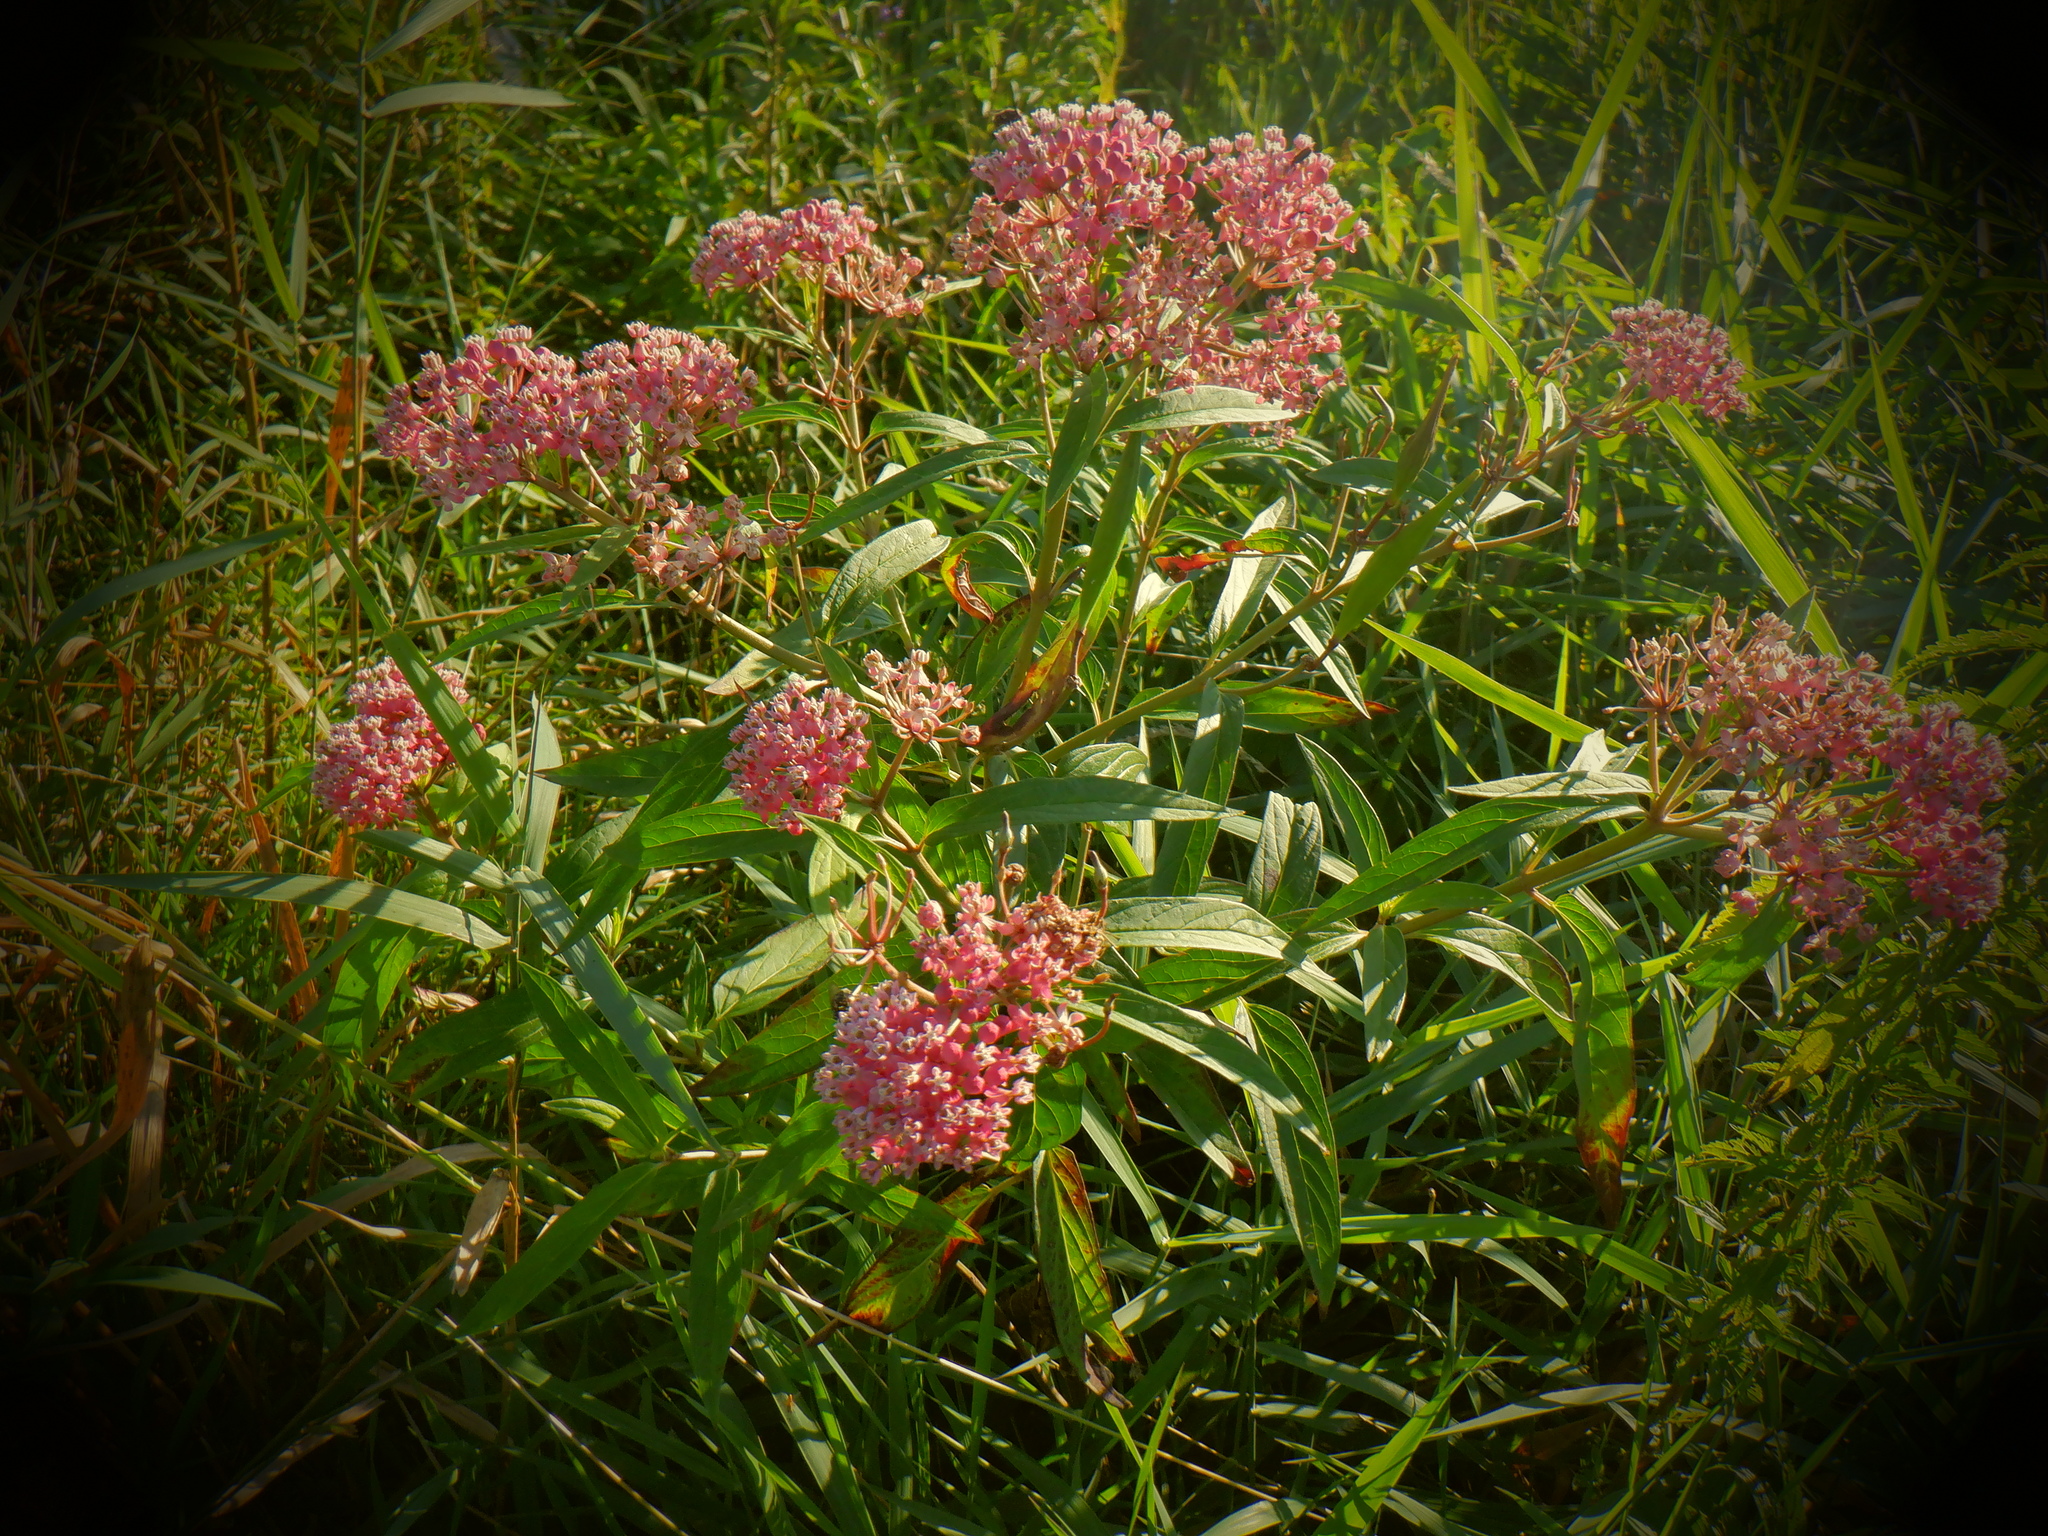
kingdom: Plantae
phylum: Tracheophyta
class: Magnoliopsida
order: Gentianales
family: Apocynaceae
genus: Asclepias
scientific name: Asclepias incarnata
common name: Swamp milkweed
